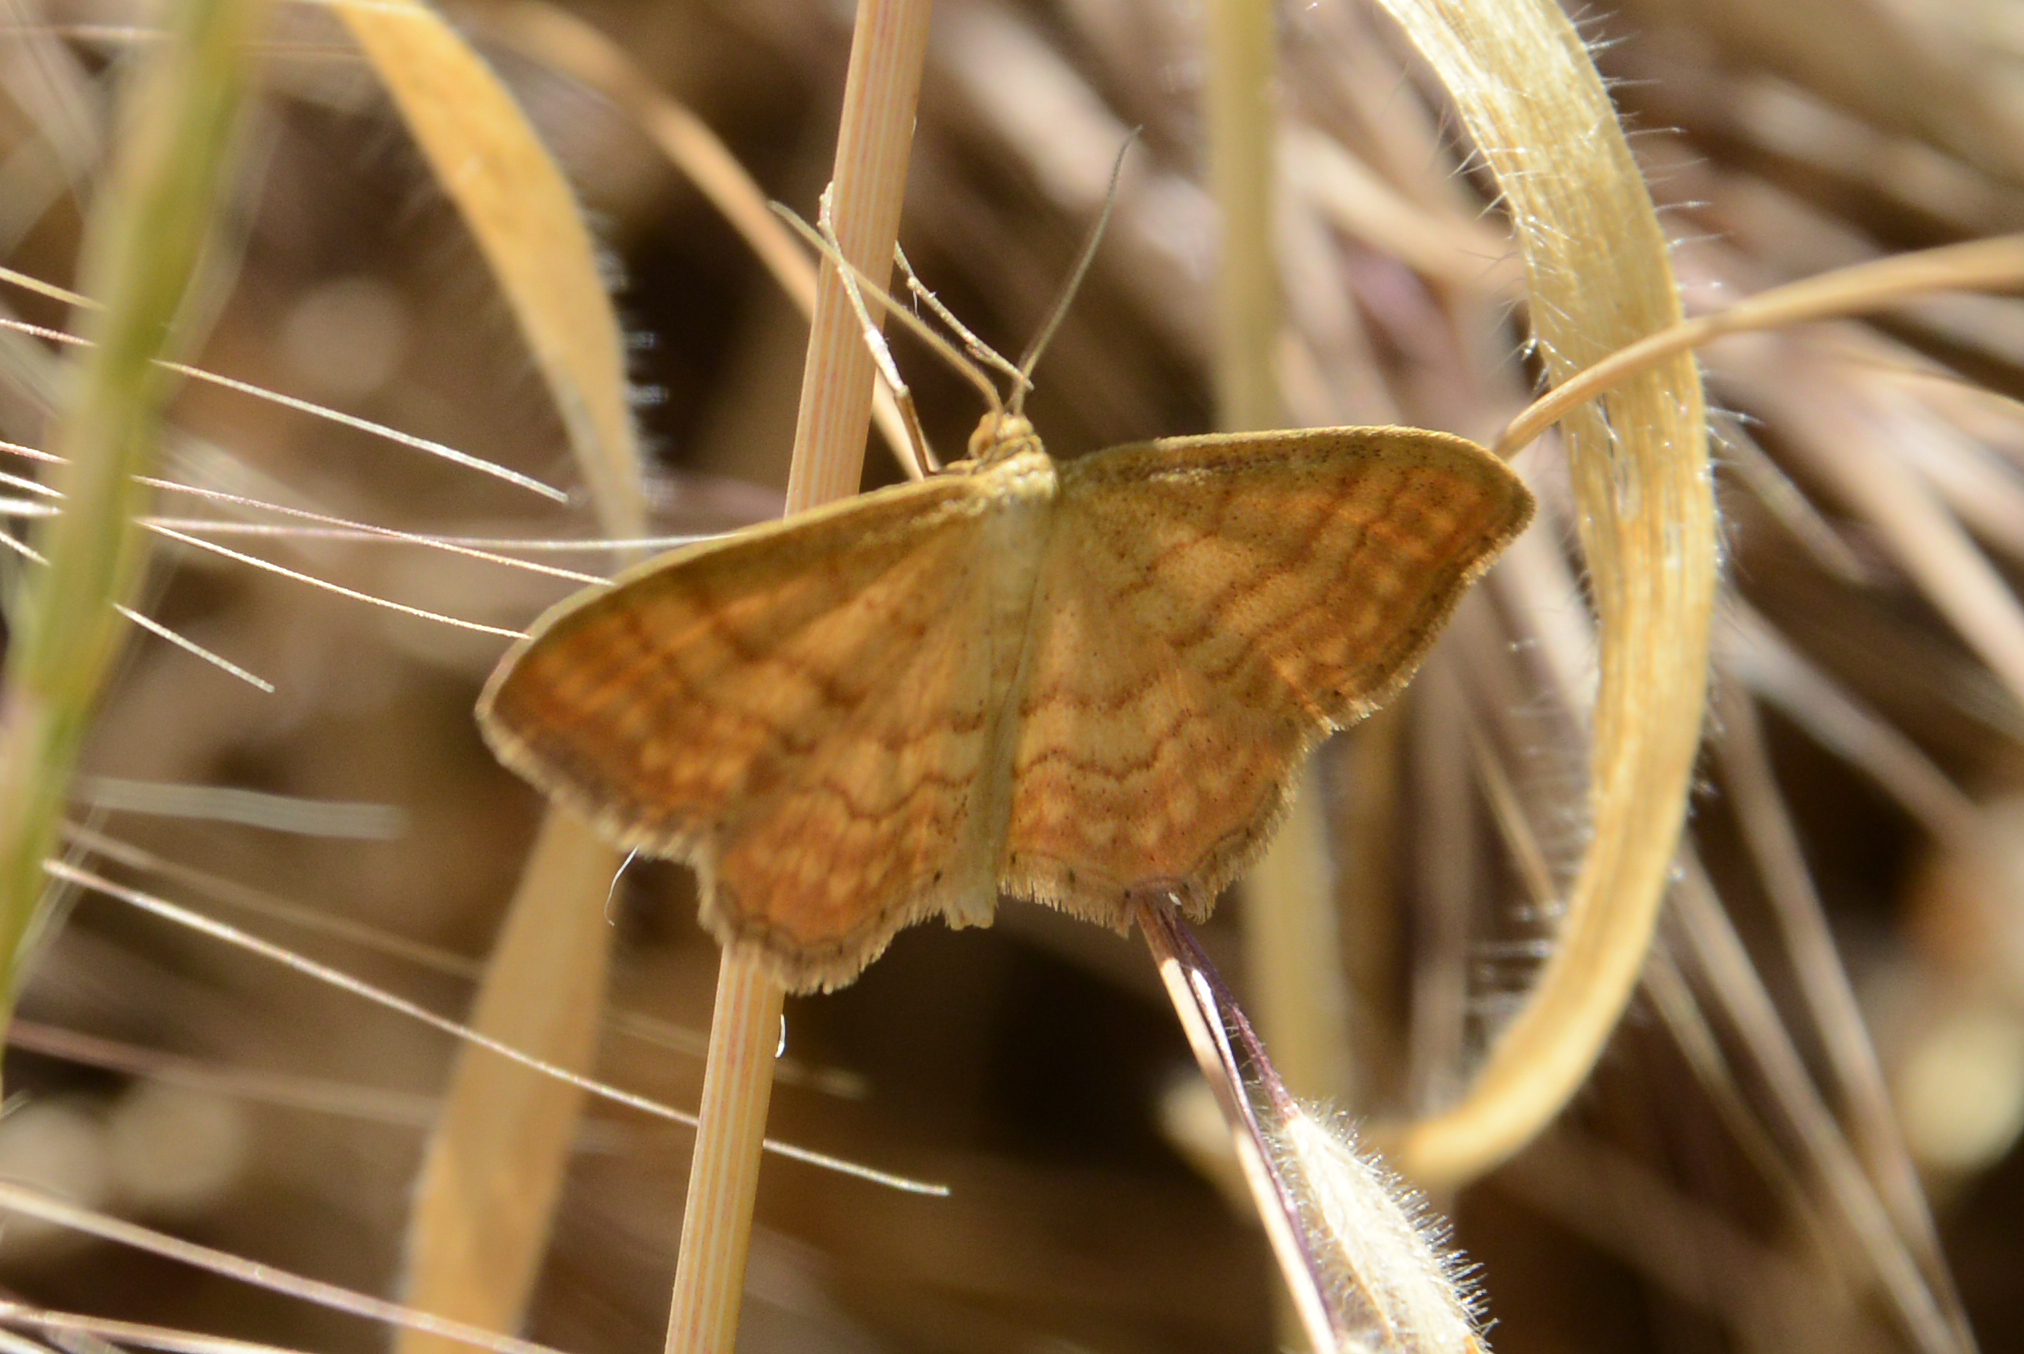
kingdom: Animalia
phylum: Arthropoda
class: Insecta
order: Lepidoptera
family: Geometridae
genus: Idaea
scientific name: Idaea ochrata
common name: Bright wave
